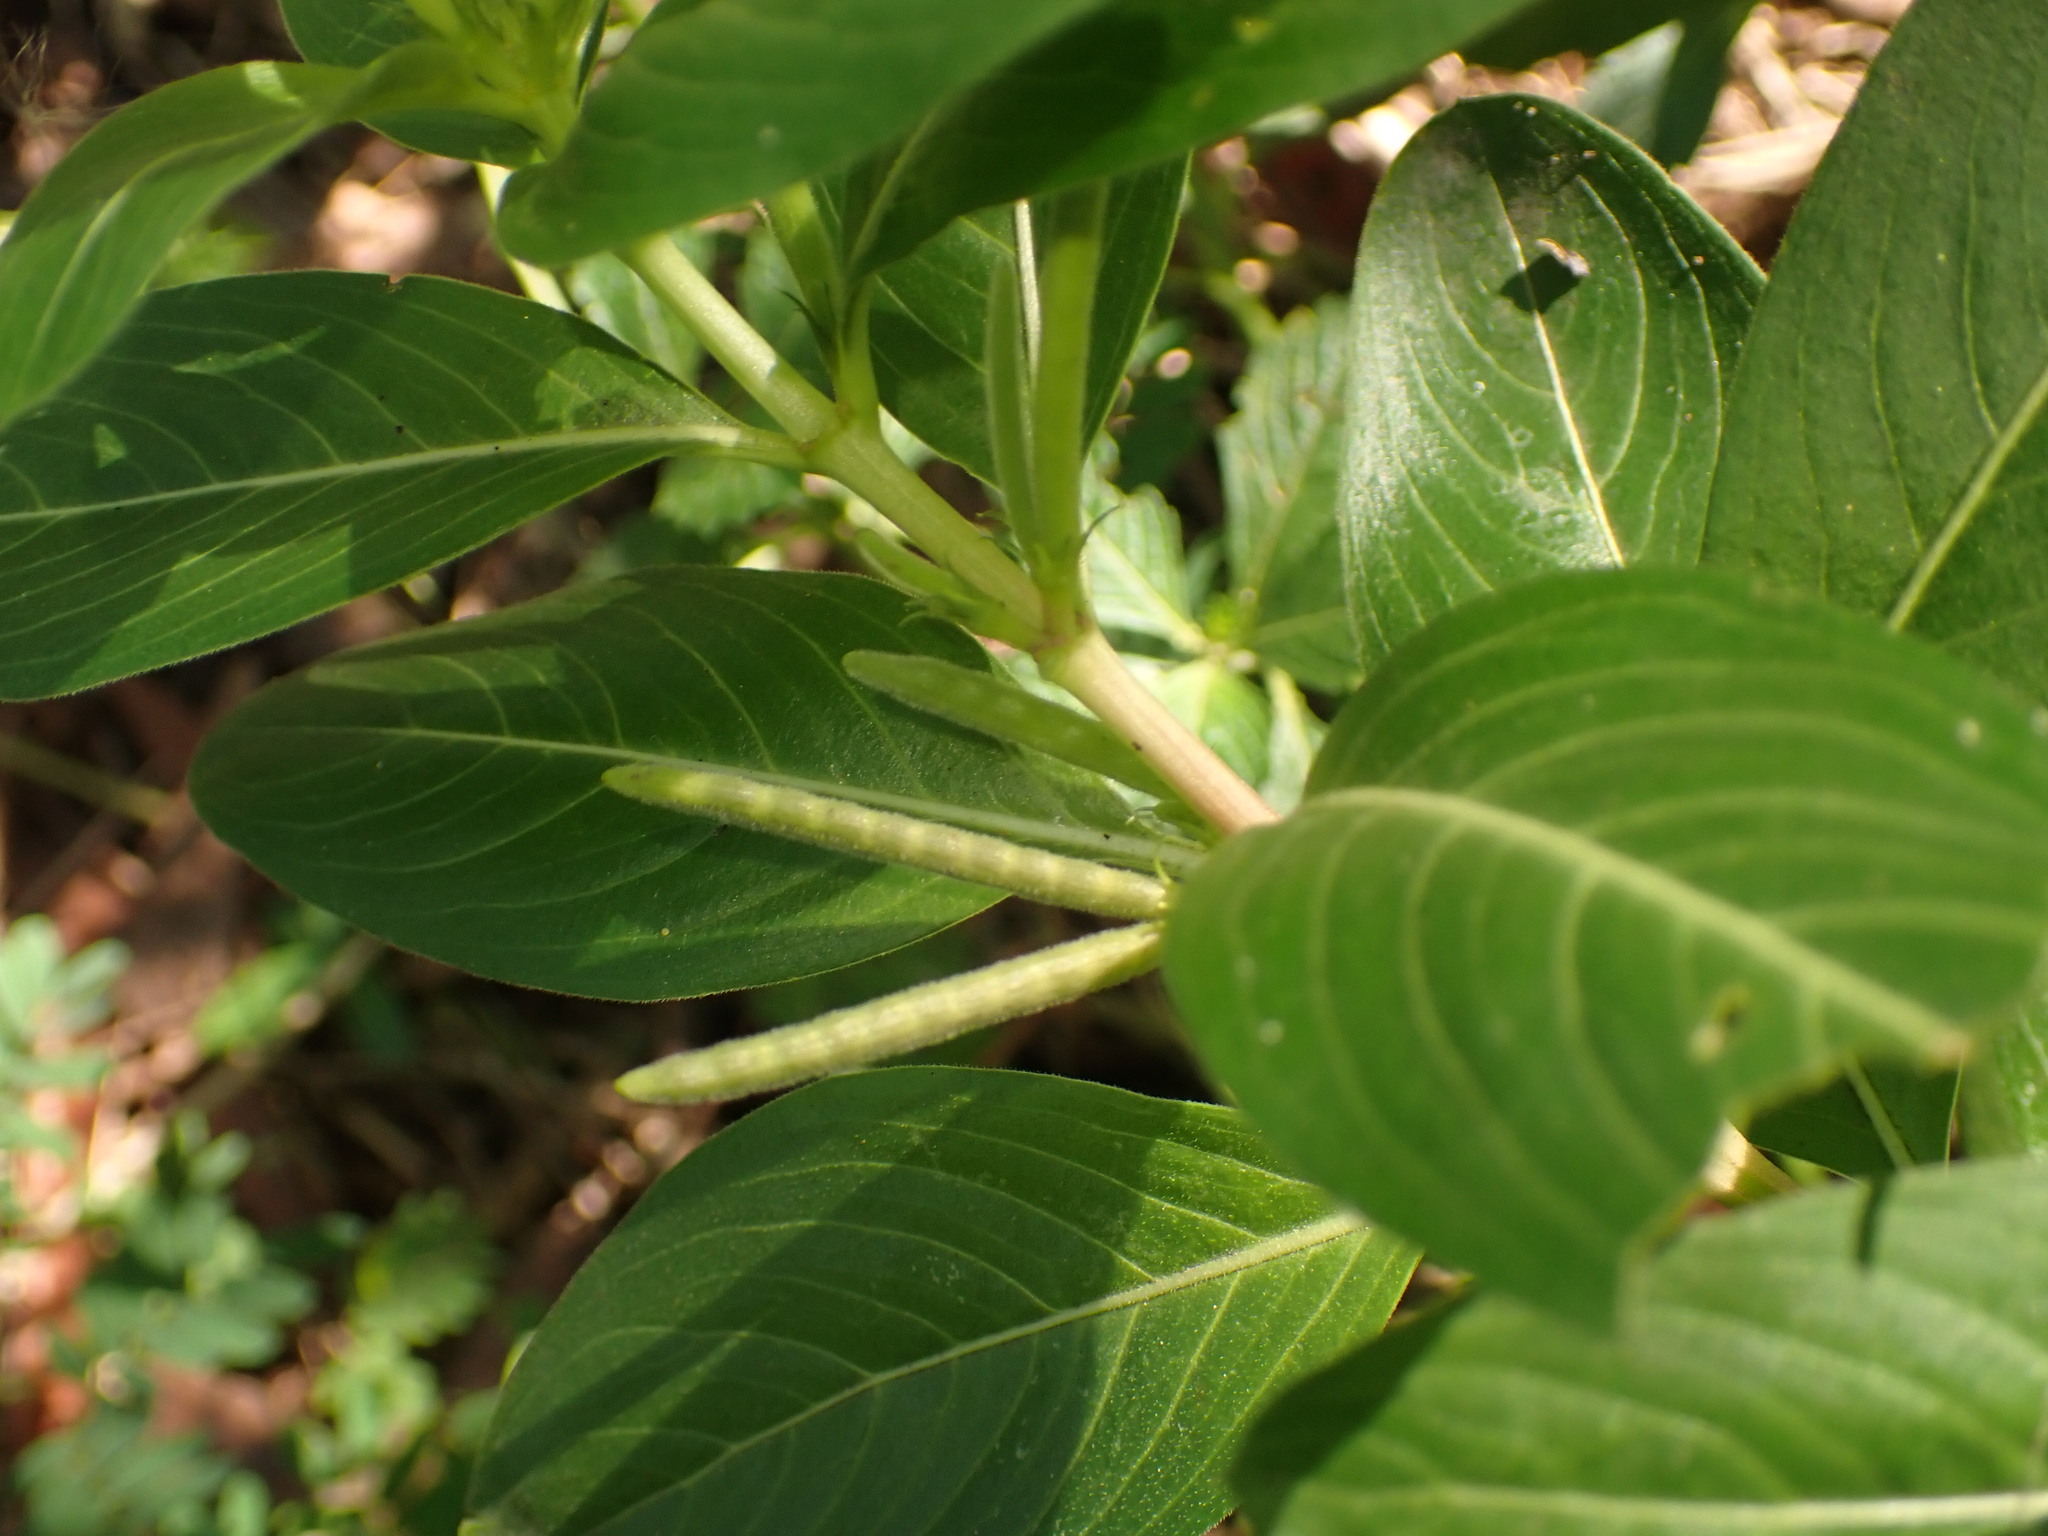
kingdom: Plantae
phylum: Tracheophyta
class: Magnoliopsida
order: Gentianales
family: Apocynaceae
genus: Catharanthus
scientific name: Catharanthus roseus
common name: Madagascar periwinkle
